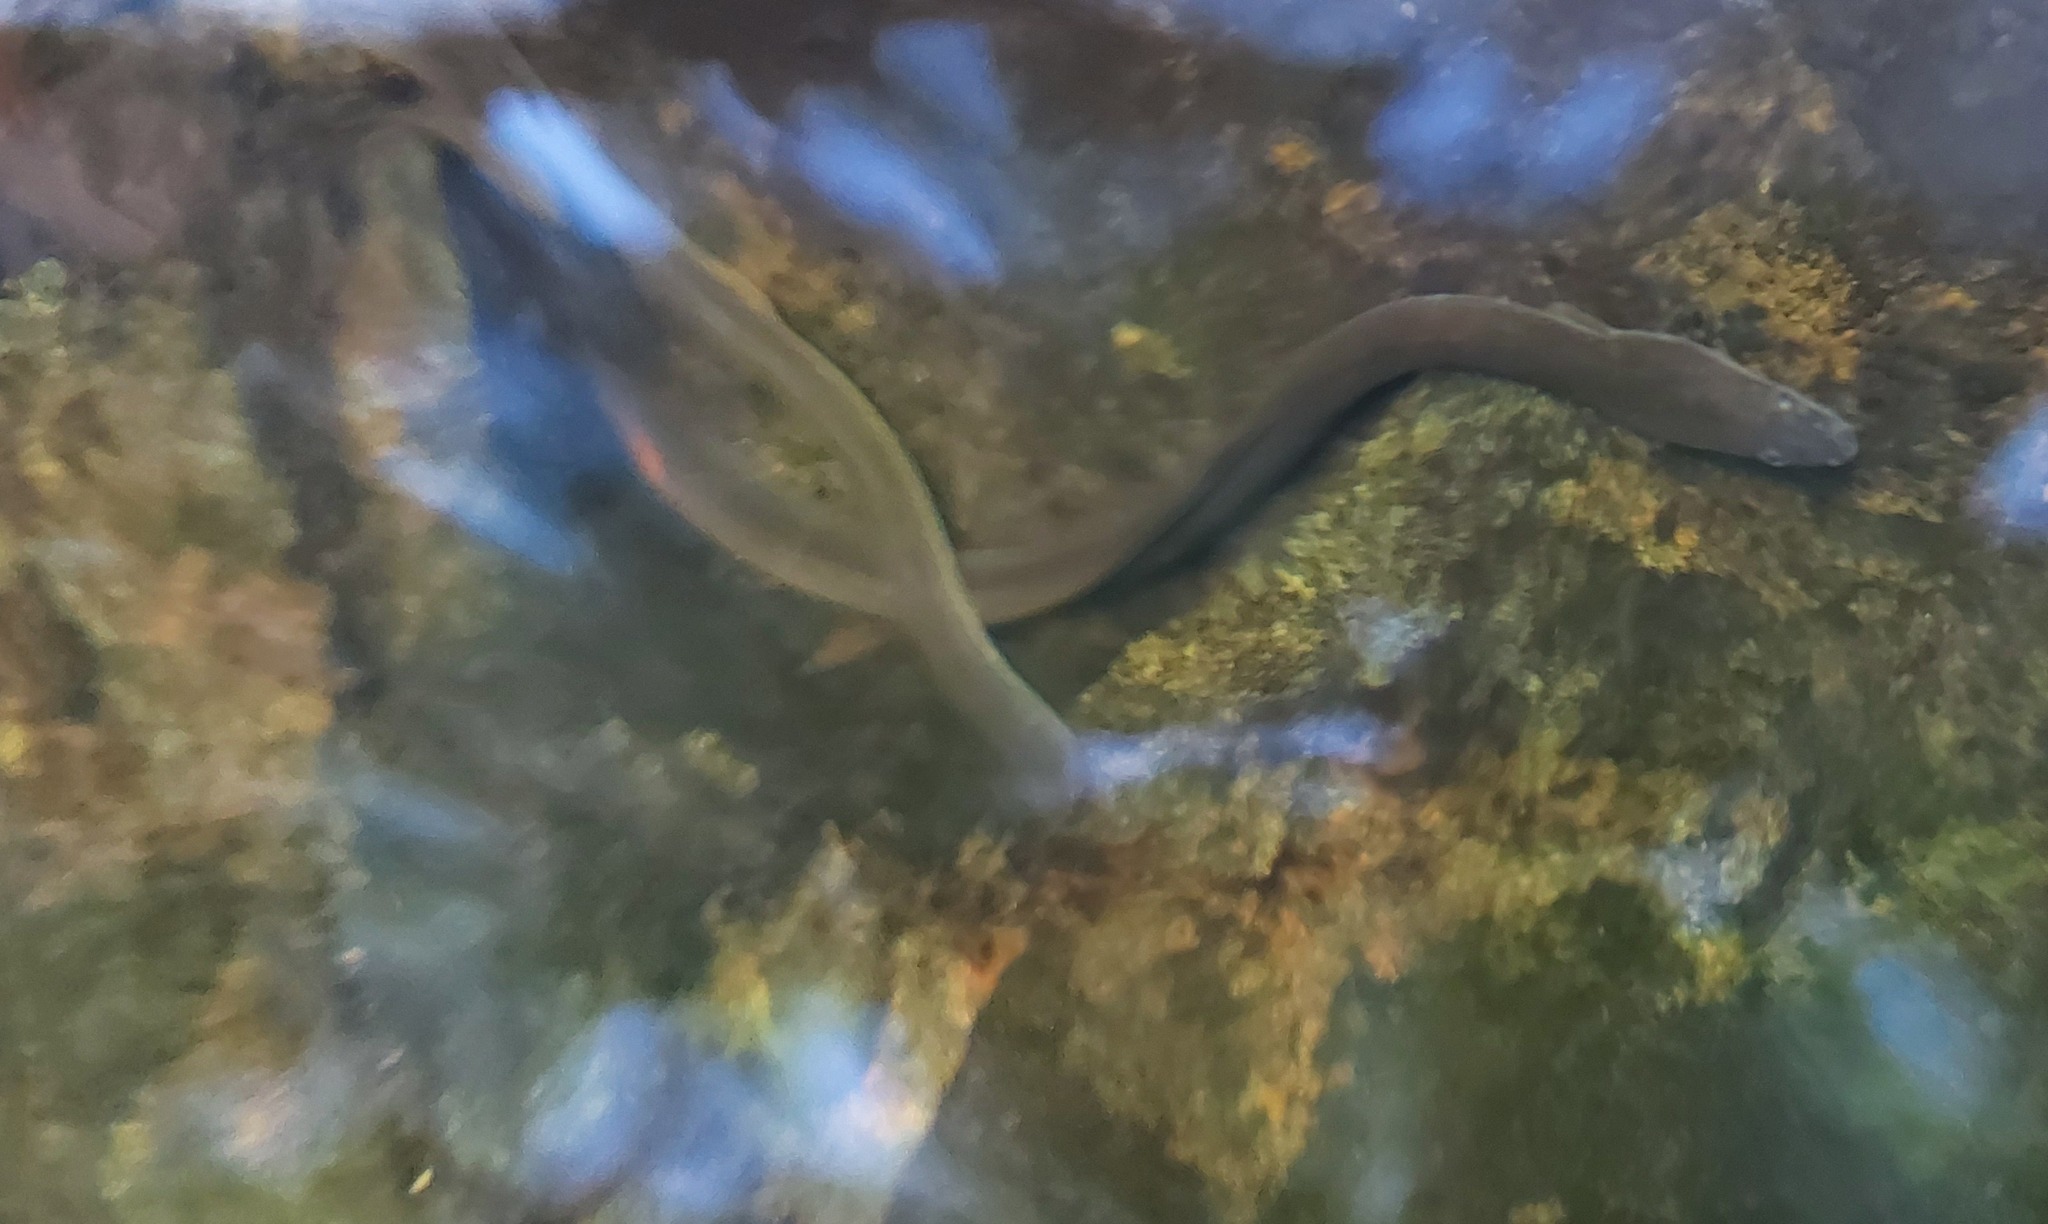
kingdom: Animalia
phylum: Chordata
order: Anguilliformes
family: Anguillidae
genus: Anguilla
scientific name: Anguilla rostrata
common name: American eel
